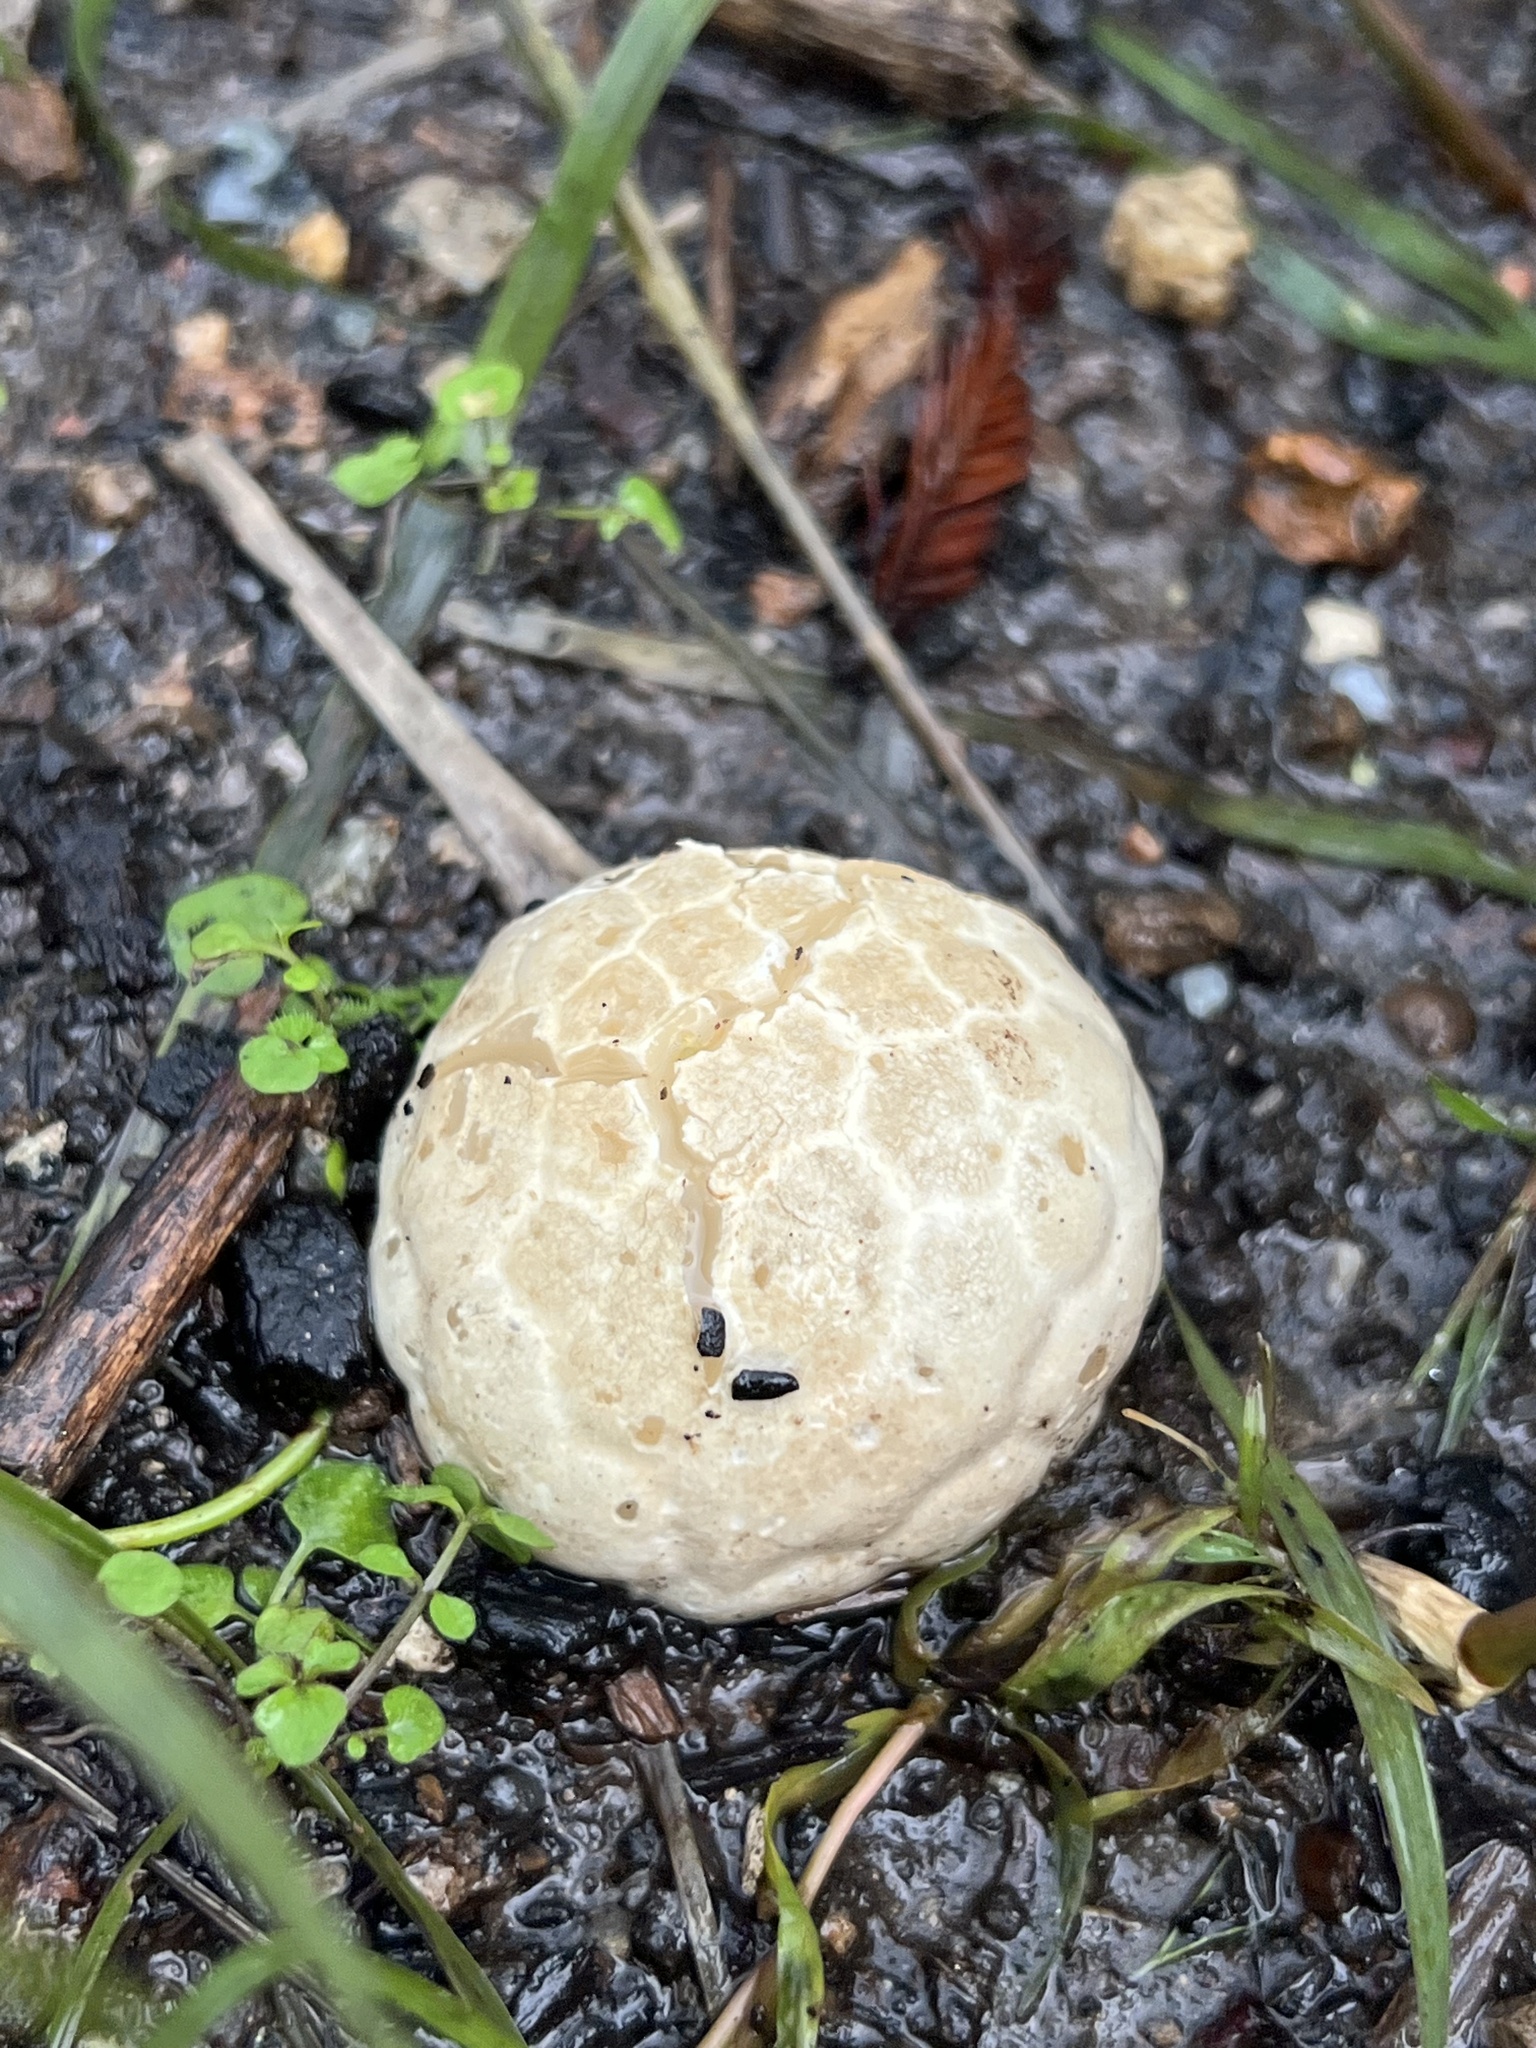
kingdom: Fungi
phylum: Basidiomycota
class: Agaricomycetes
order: Phallales
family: Phallaceae
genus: Clathrus
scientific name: Clathrus ruber
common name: Red cage
